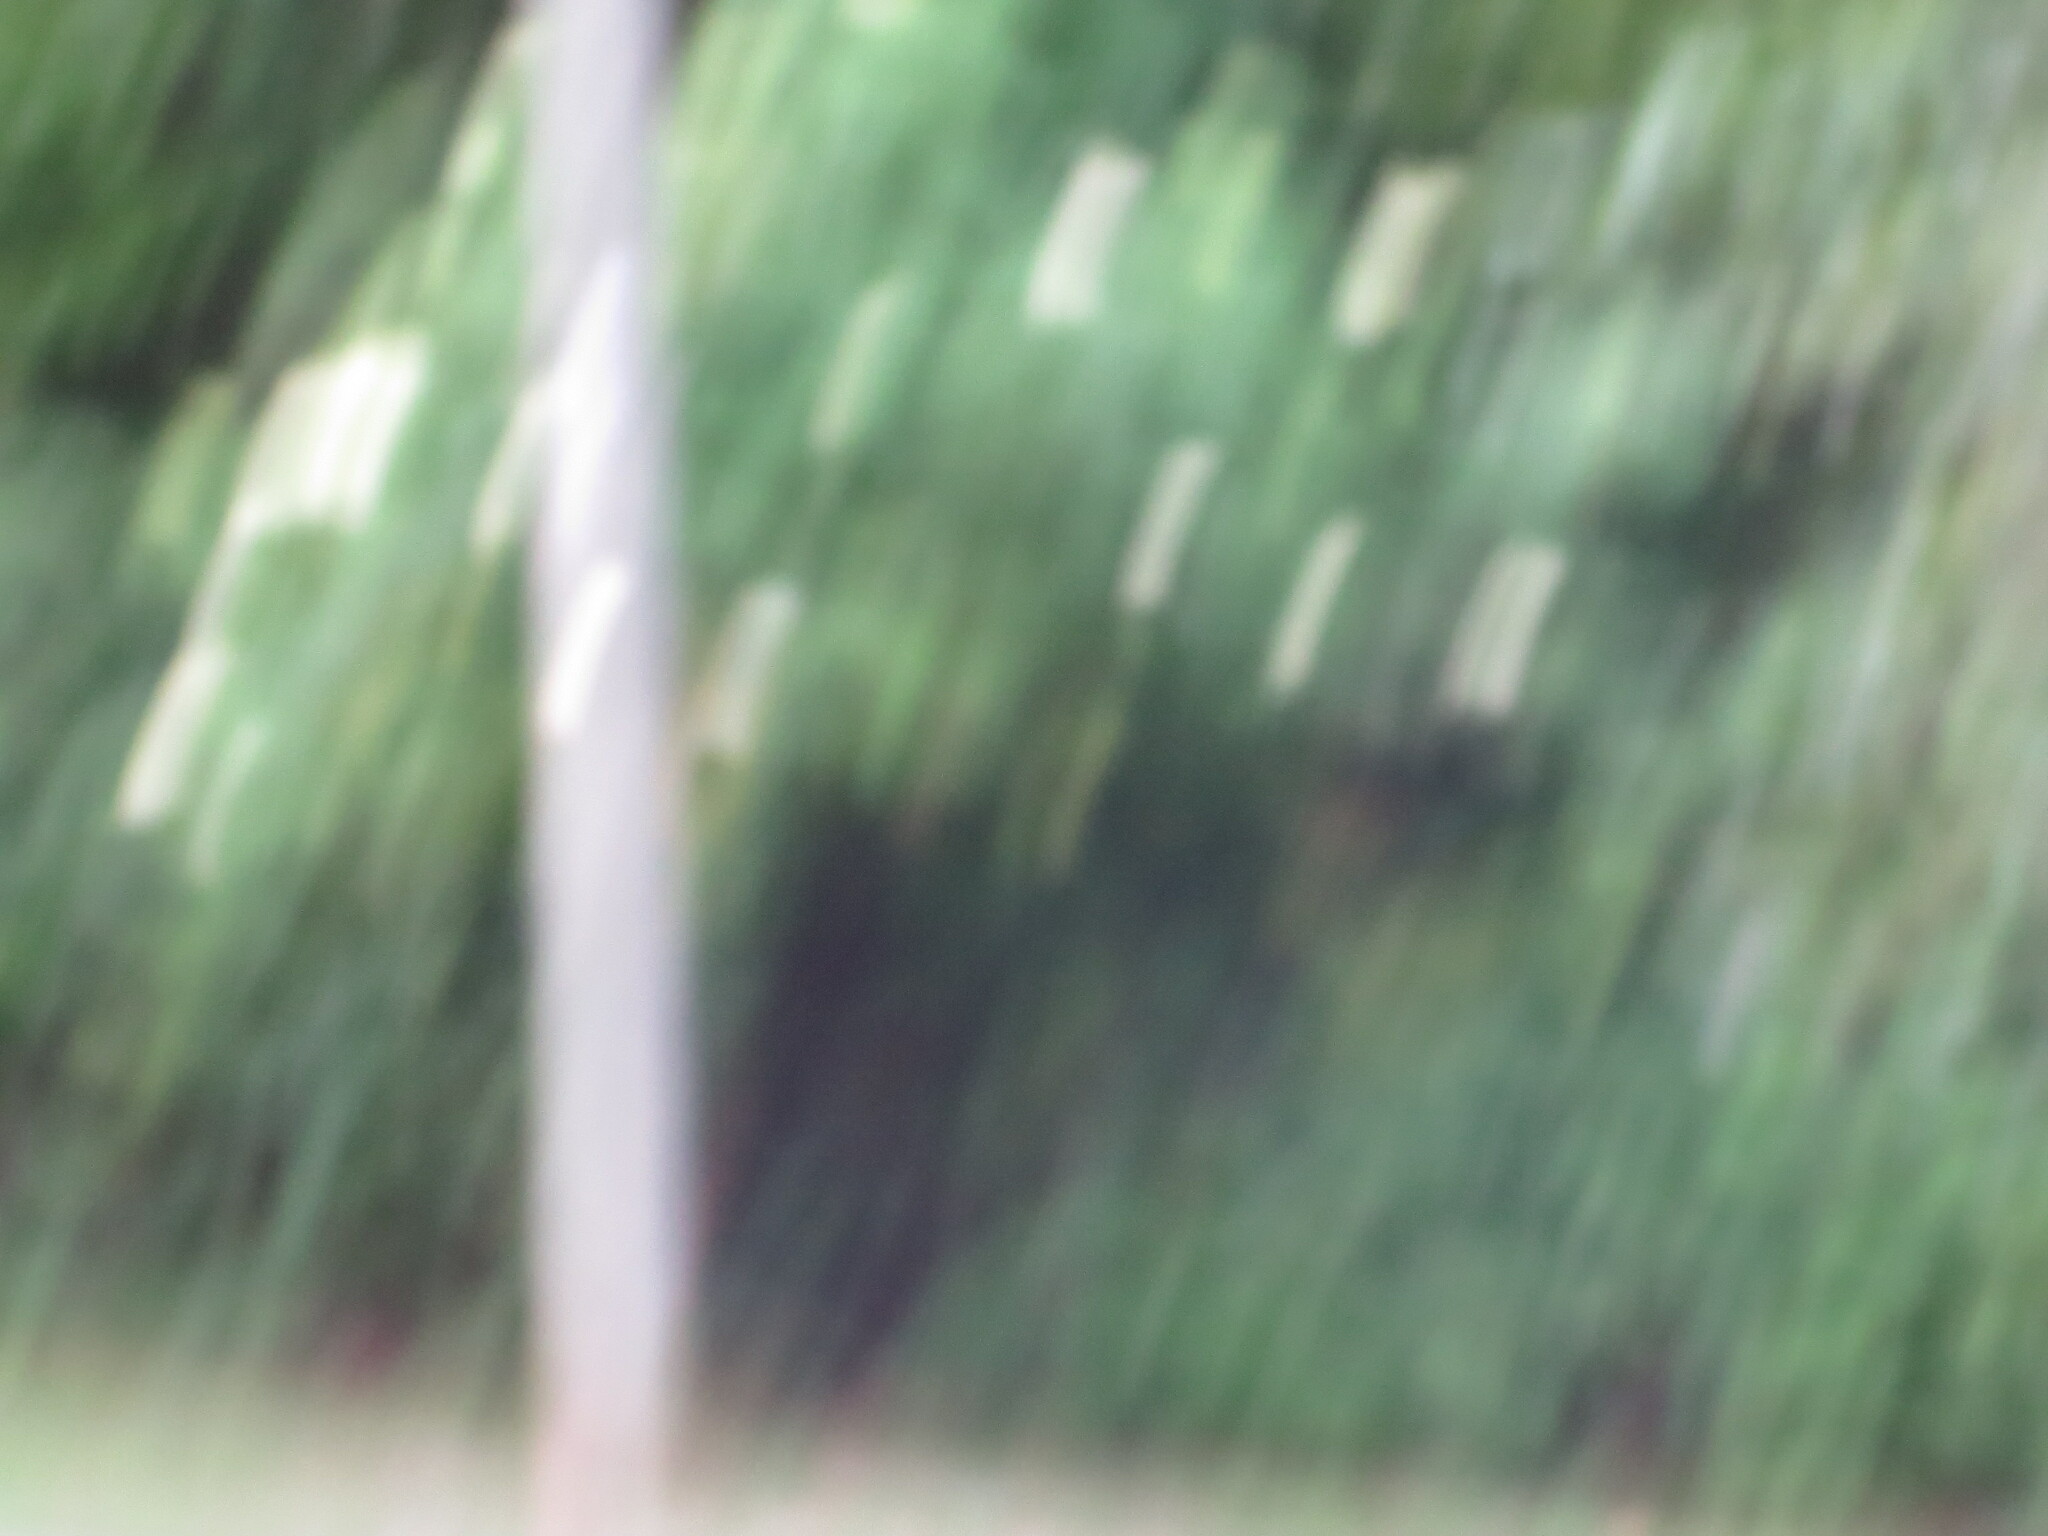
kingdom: Plantae
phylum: Tracheophyta
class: Magnoliopsida
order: Dipsacales
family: Viburnaceae
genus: Sambucus
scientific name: Sambucus canadensis
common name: American elder
